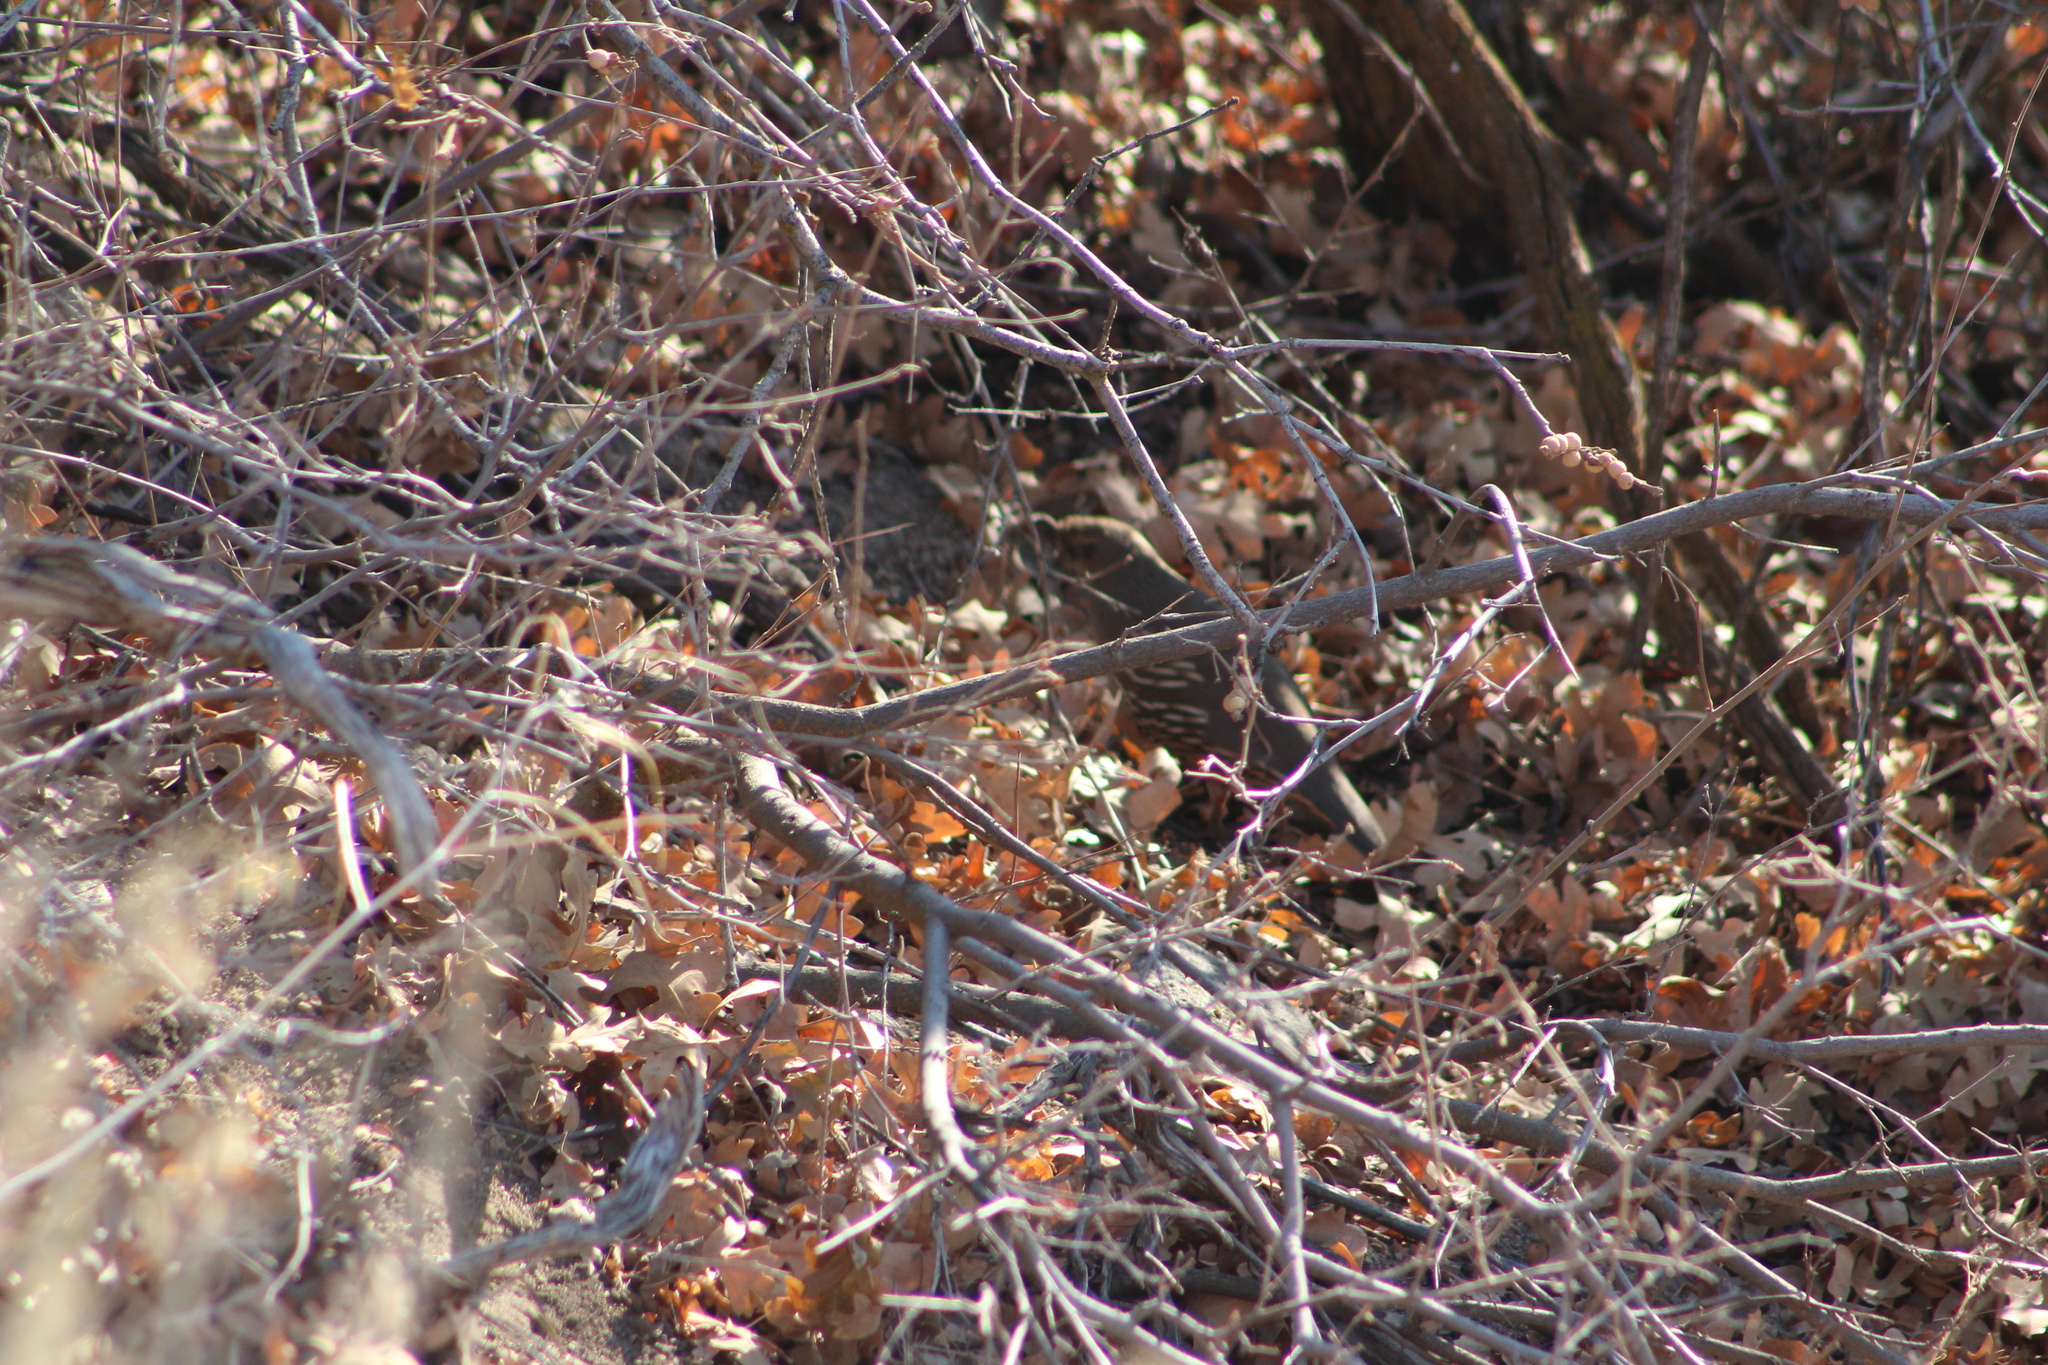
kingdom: Animalia
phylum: Chordata
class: Aves
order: Galliformes
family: Odontophoridae
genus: Callipepla
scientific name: Callipepla californica
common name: California quail
